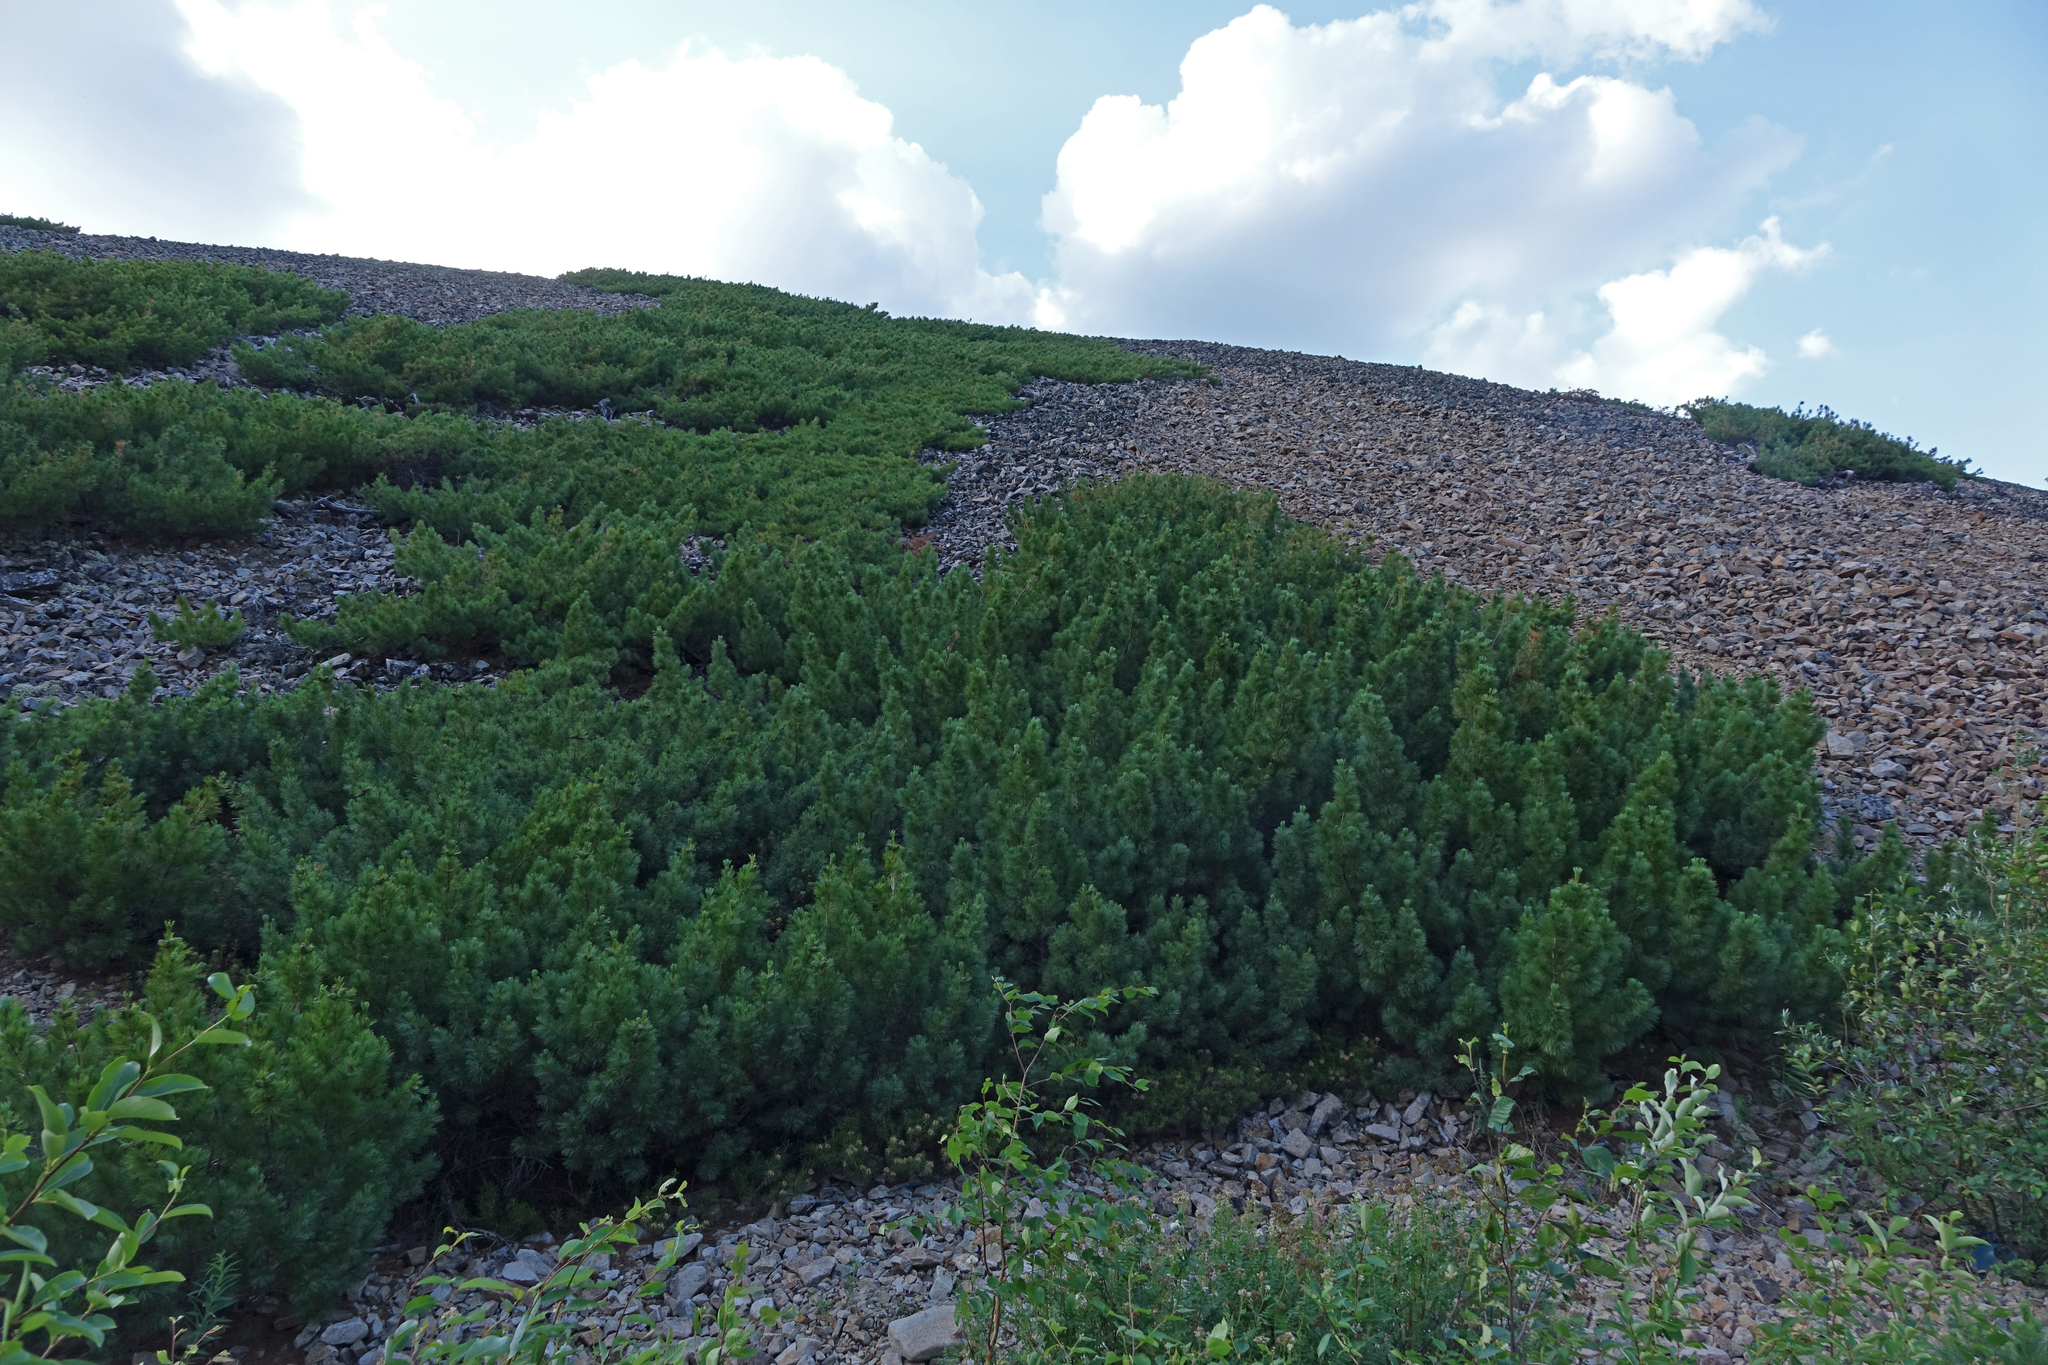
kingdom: Plantae
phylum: Tracheophyta
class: Pinopsida
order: Pinales
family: Pinaceae
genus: Pinus
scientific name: Pinus pumila
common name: Dwarf siberian pine
